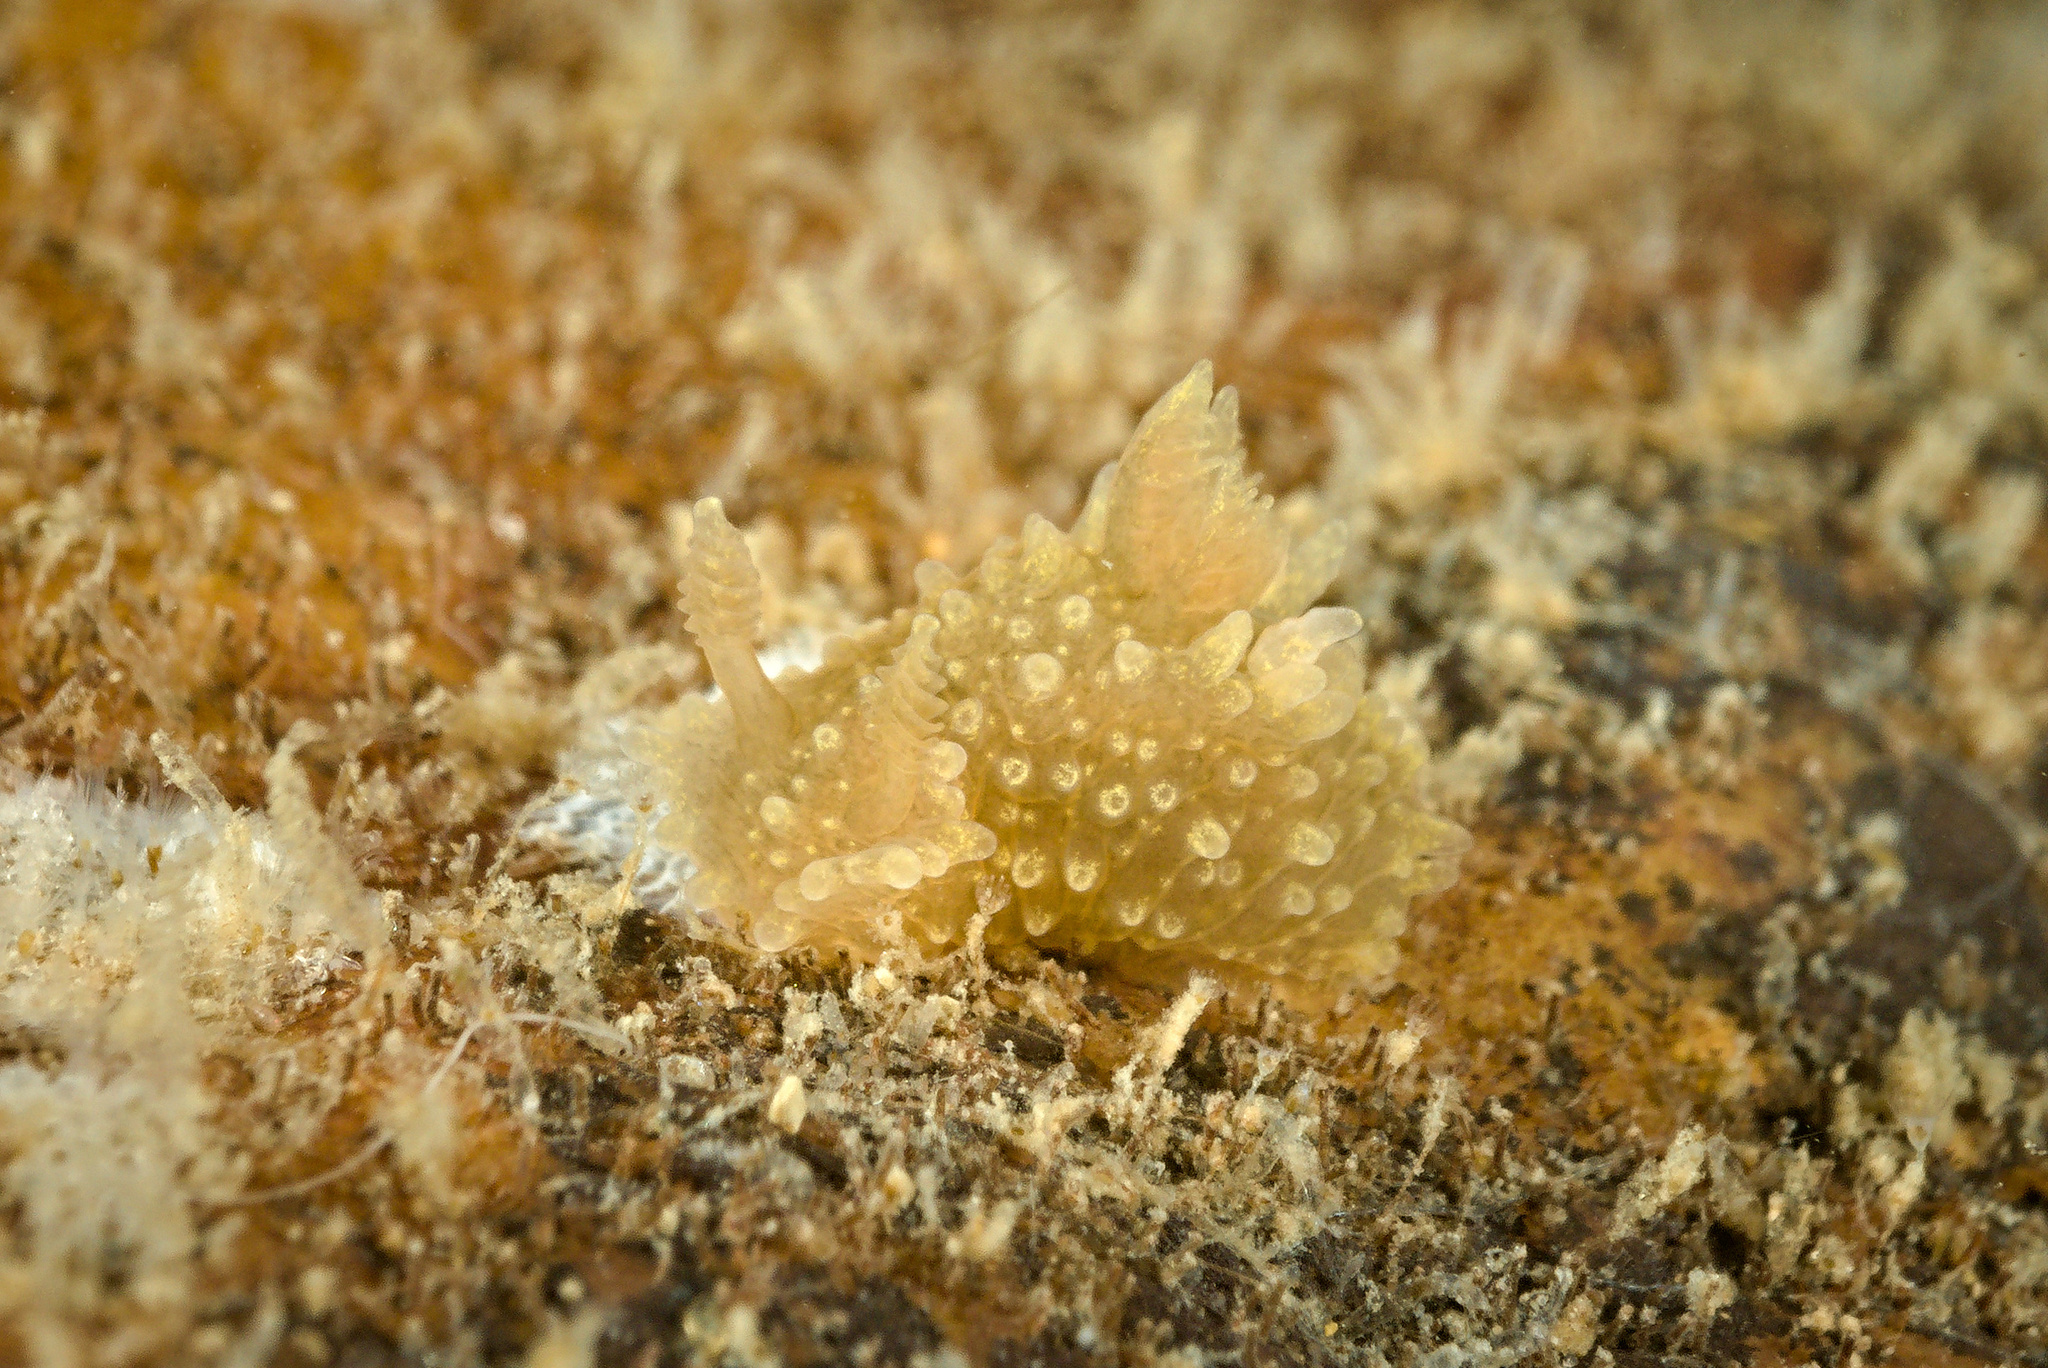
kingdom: Animalia
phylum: Mollusca
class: Gastropoda
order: Nudibranchia
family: Polyceridae
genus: Palio
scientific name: Palio dubia
